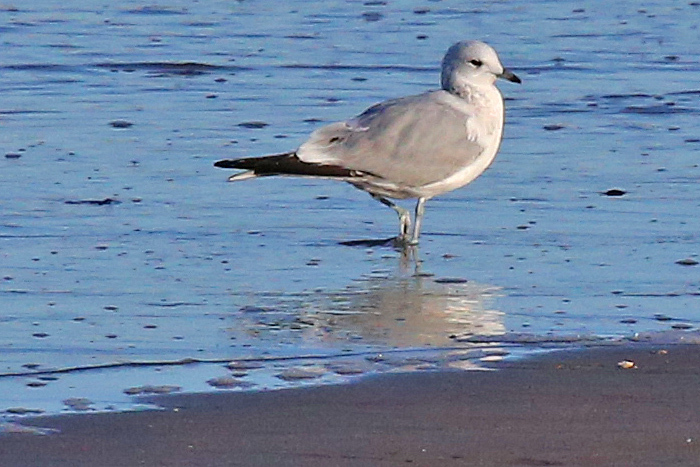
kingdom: Animalia
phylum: Chordata
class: Aves
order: Charadriiformes
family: Laridae
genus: Larus
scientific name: Larus canus
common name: Mew gull
